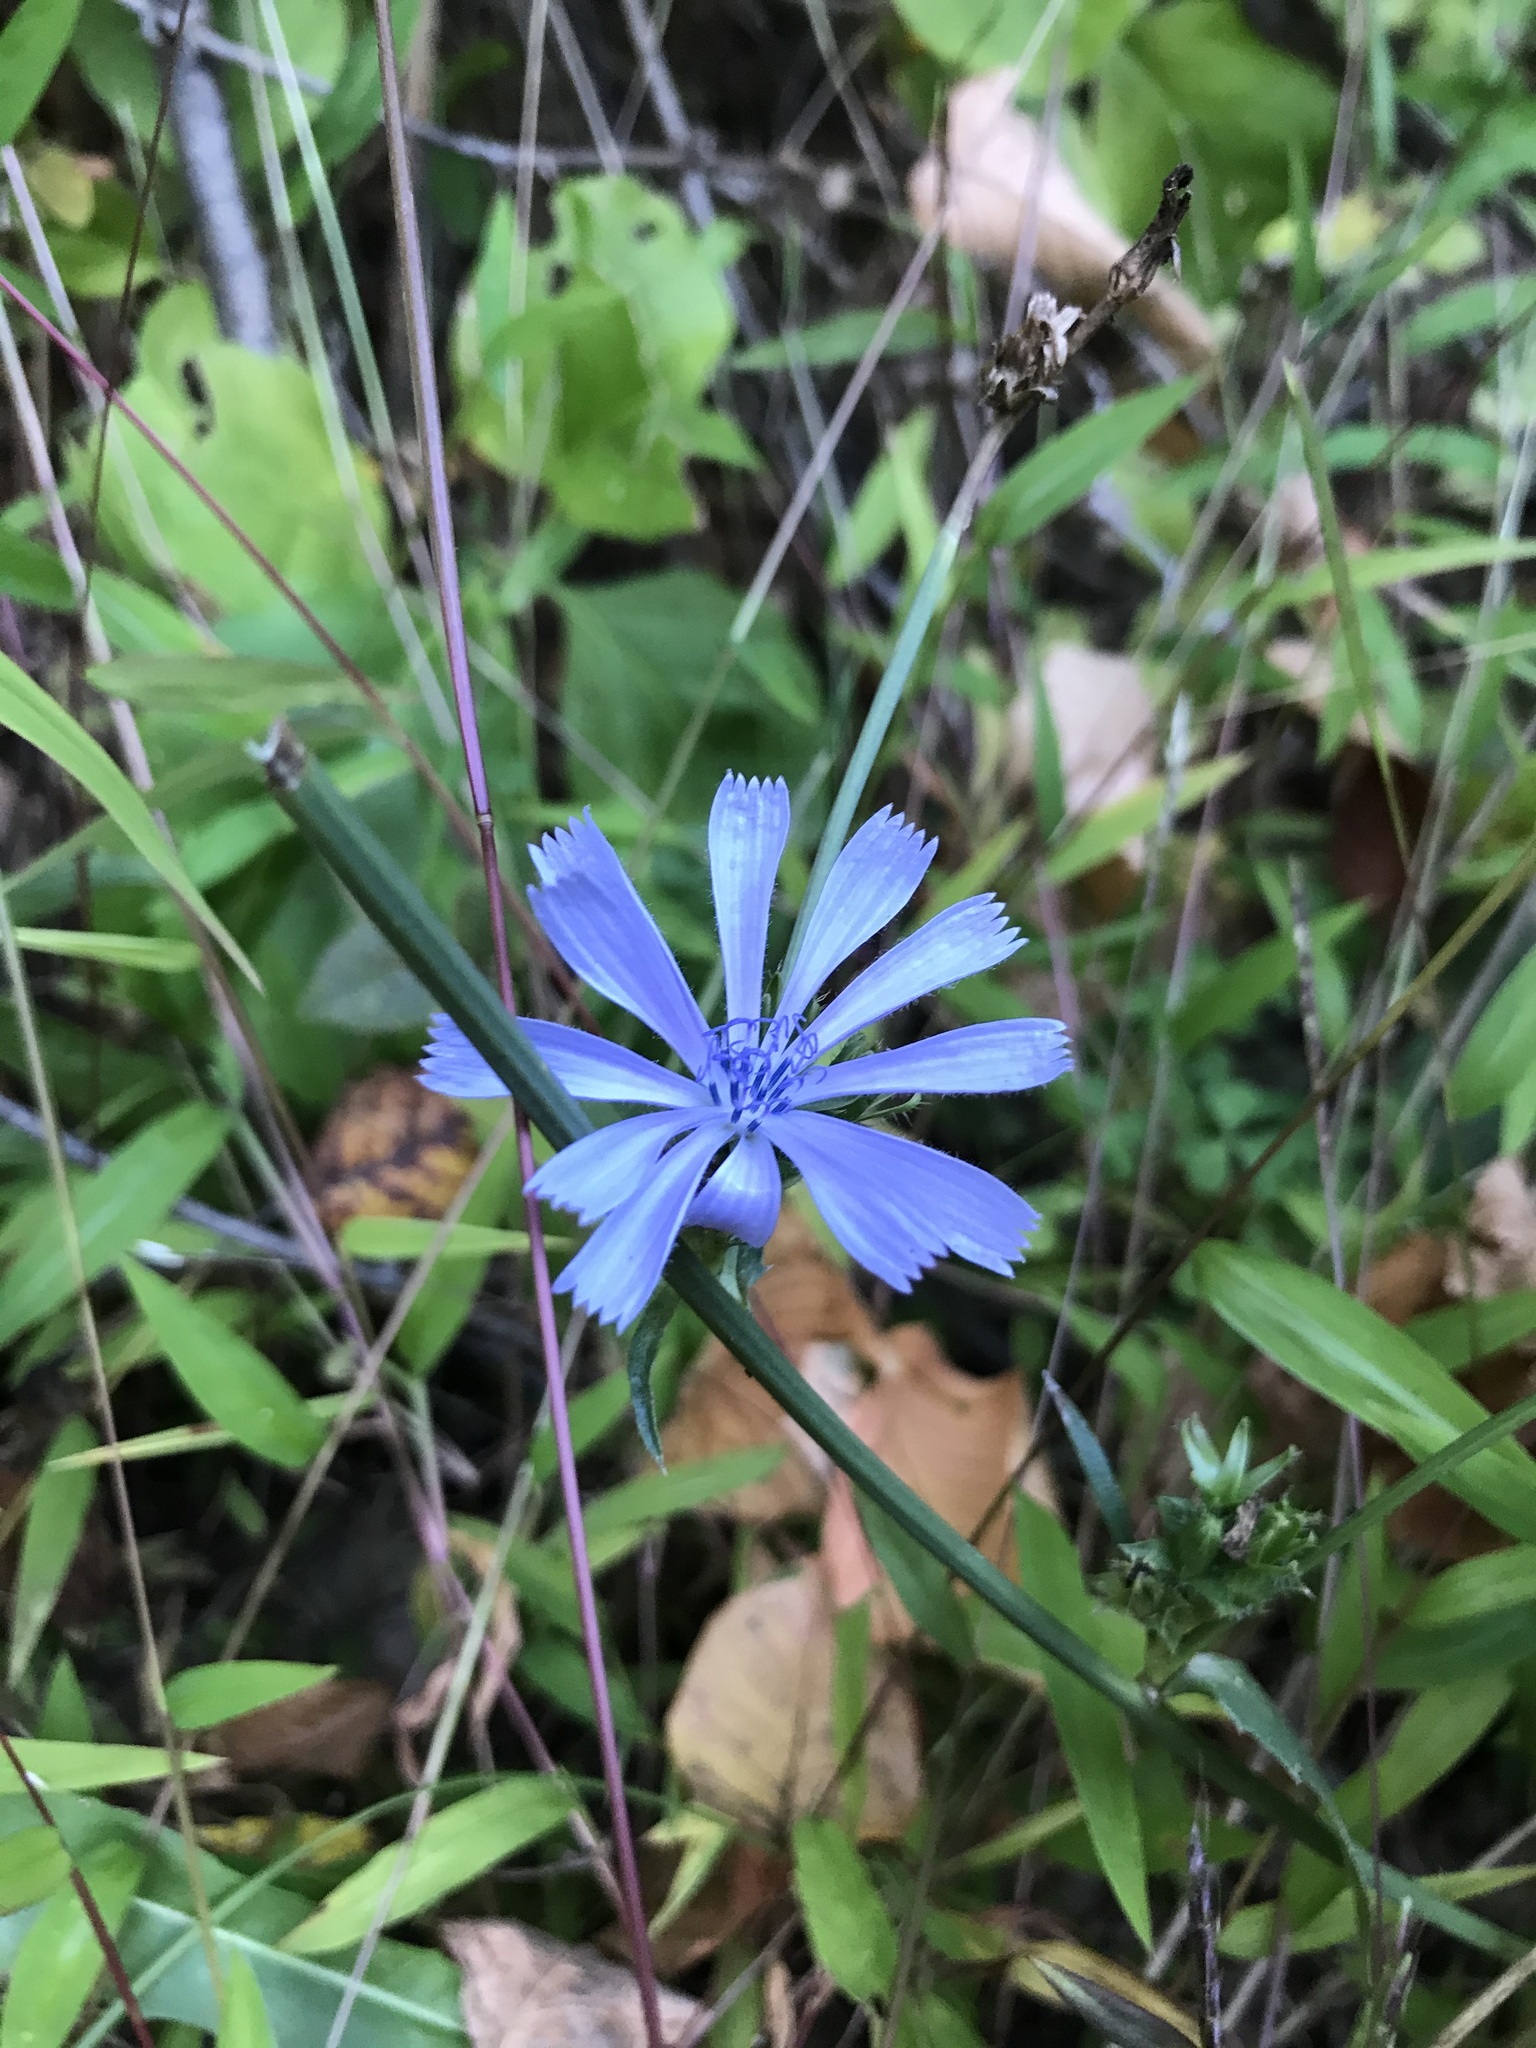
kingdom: Plantae
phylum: Tracheophyta
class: Magnoliopsida
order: Asterales
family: Asteraceae
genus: Cichorium
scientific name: Cichorium intybus
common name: Chicory
